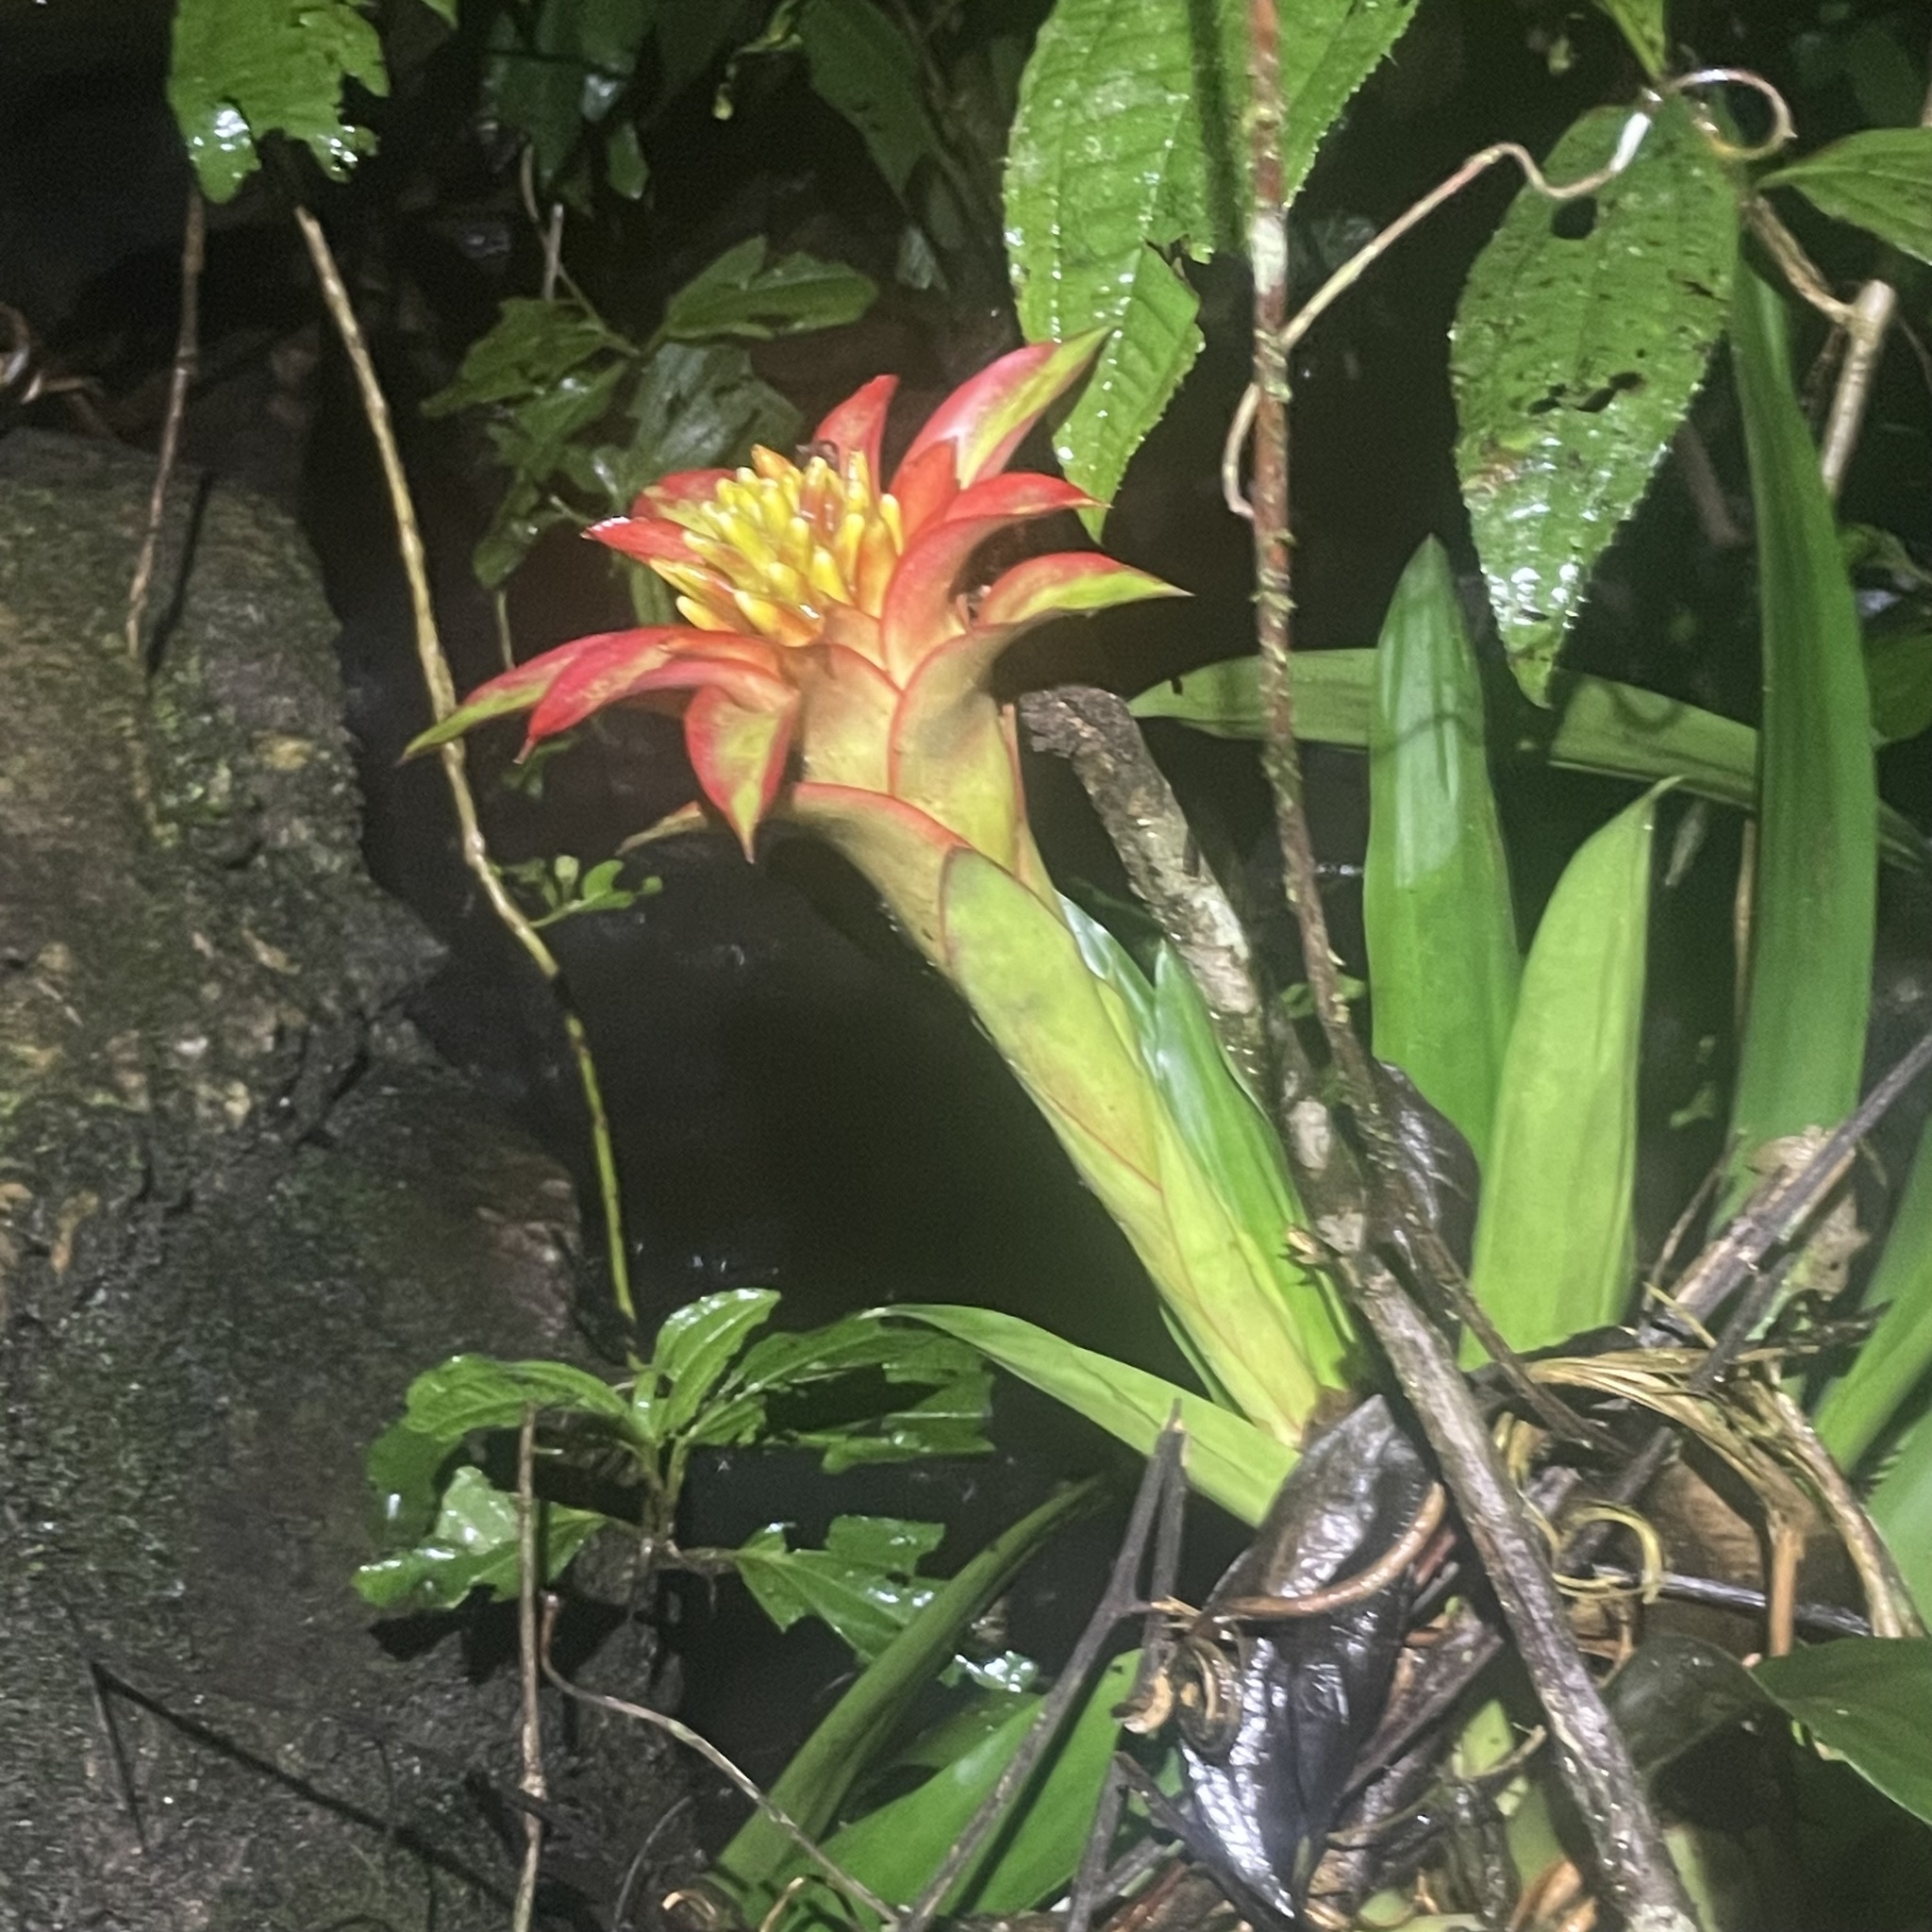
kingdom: Plantae
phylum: Tracheophyta
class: Liliopsida
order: Poales
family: Bromeliaceae
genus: Guzmania
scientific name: Guzmania lingulata
